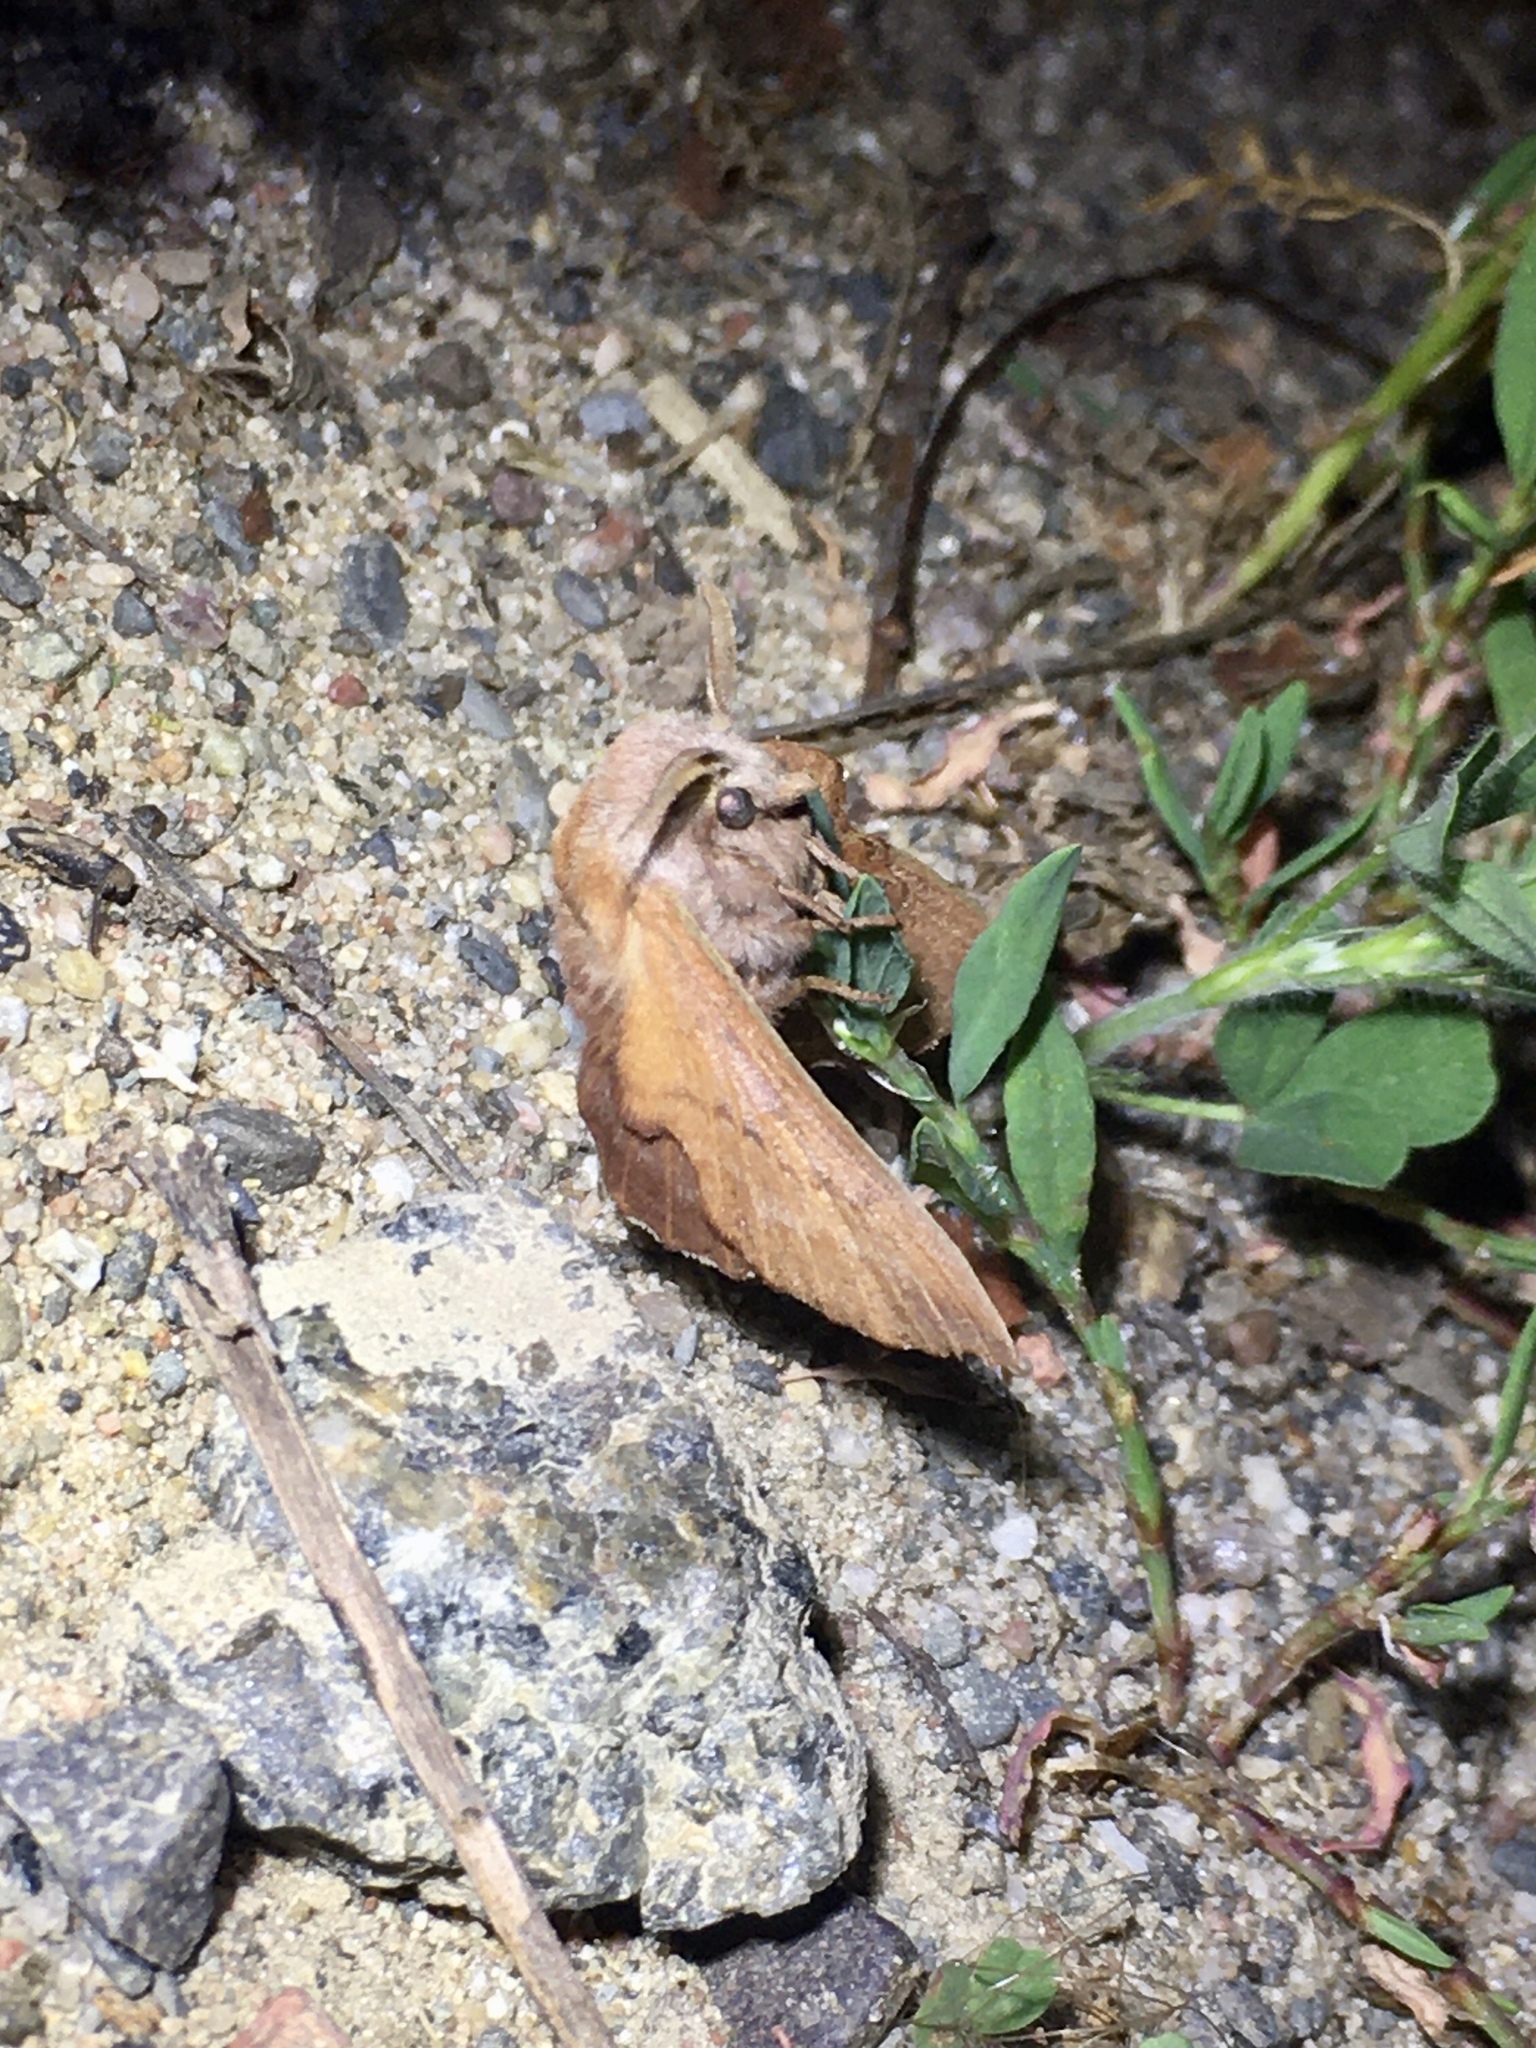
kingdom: Animalia
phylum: Arthropoda
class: Insecta
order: Lepidoptera
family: Lasiocampidae
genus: Phyllodesma
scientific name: Phyllodesma americana
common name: American lappet moth
